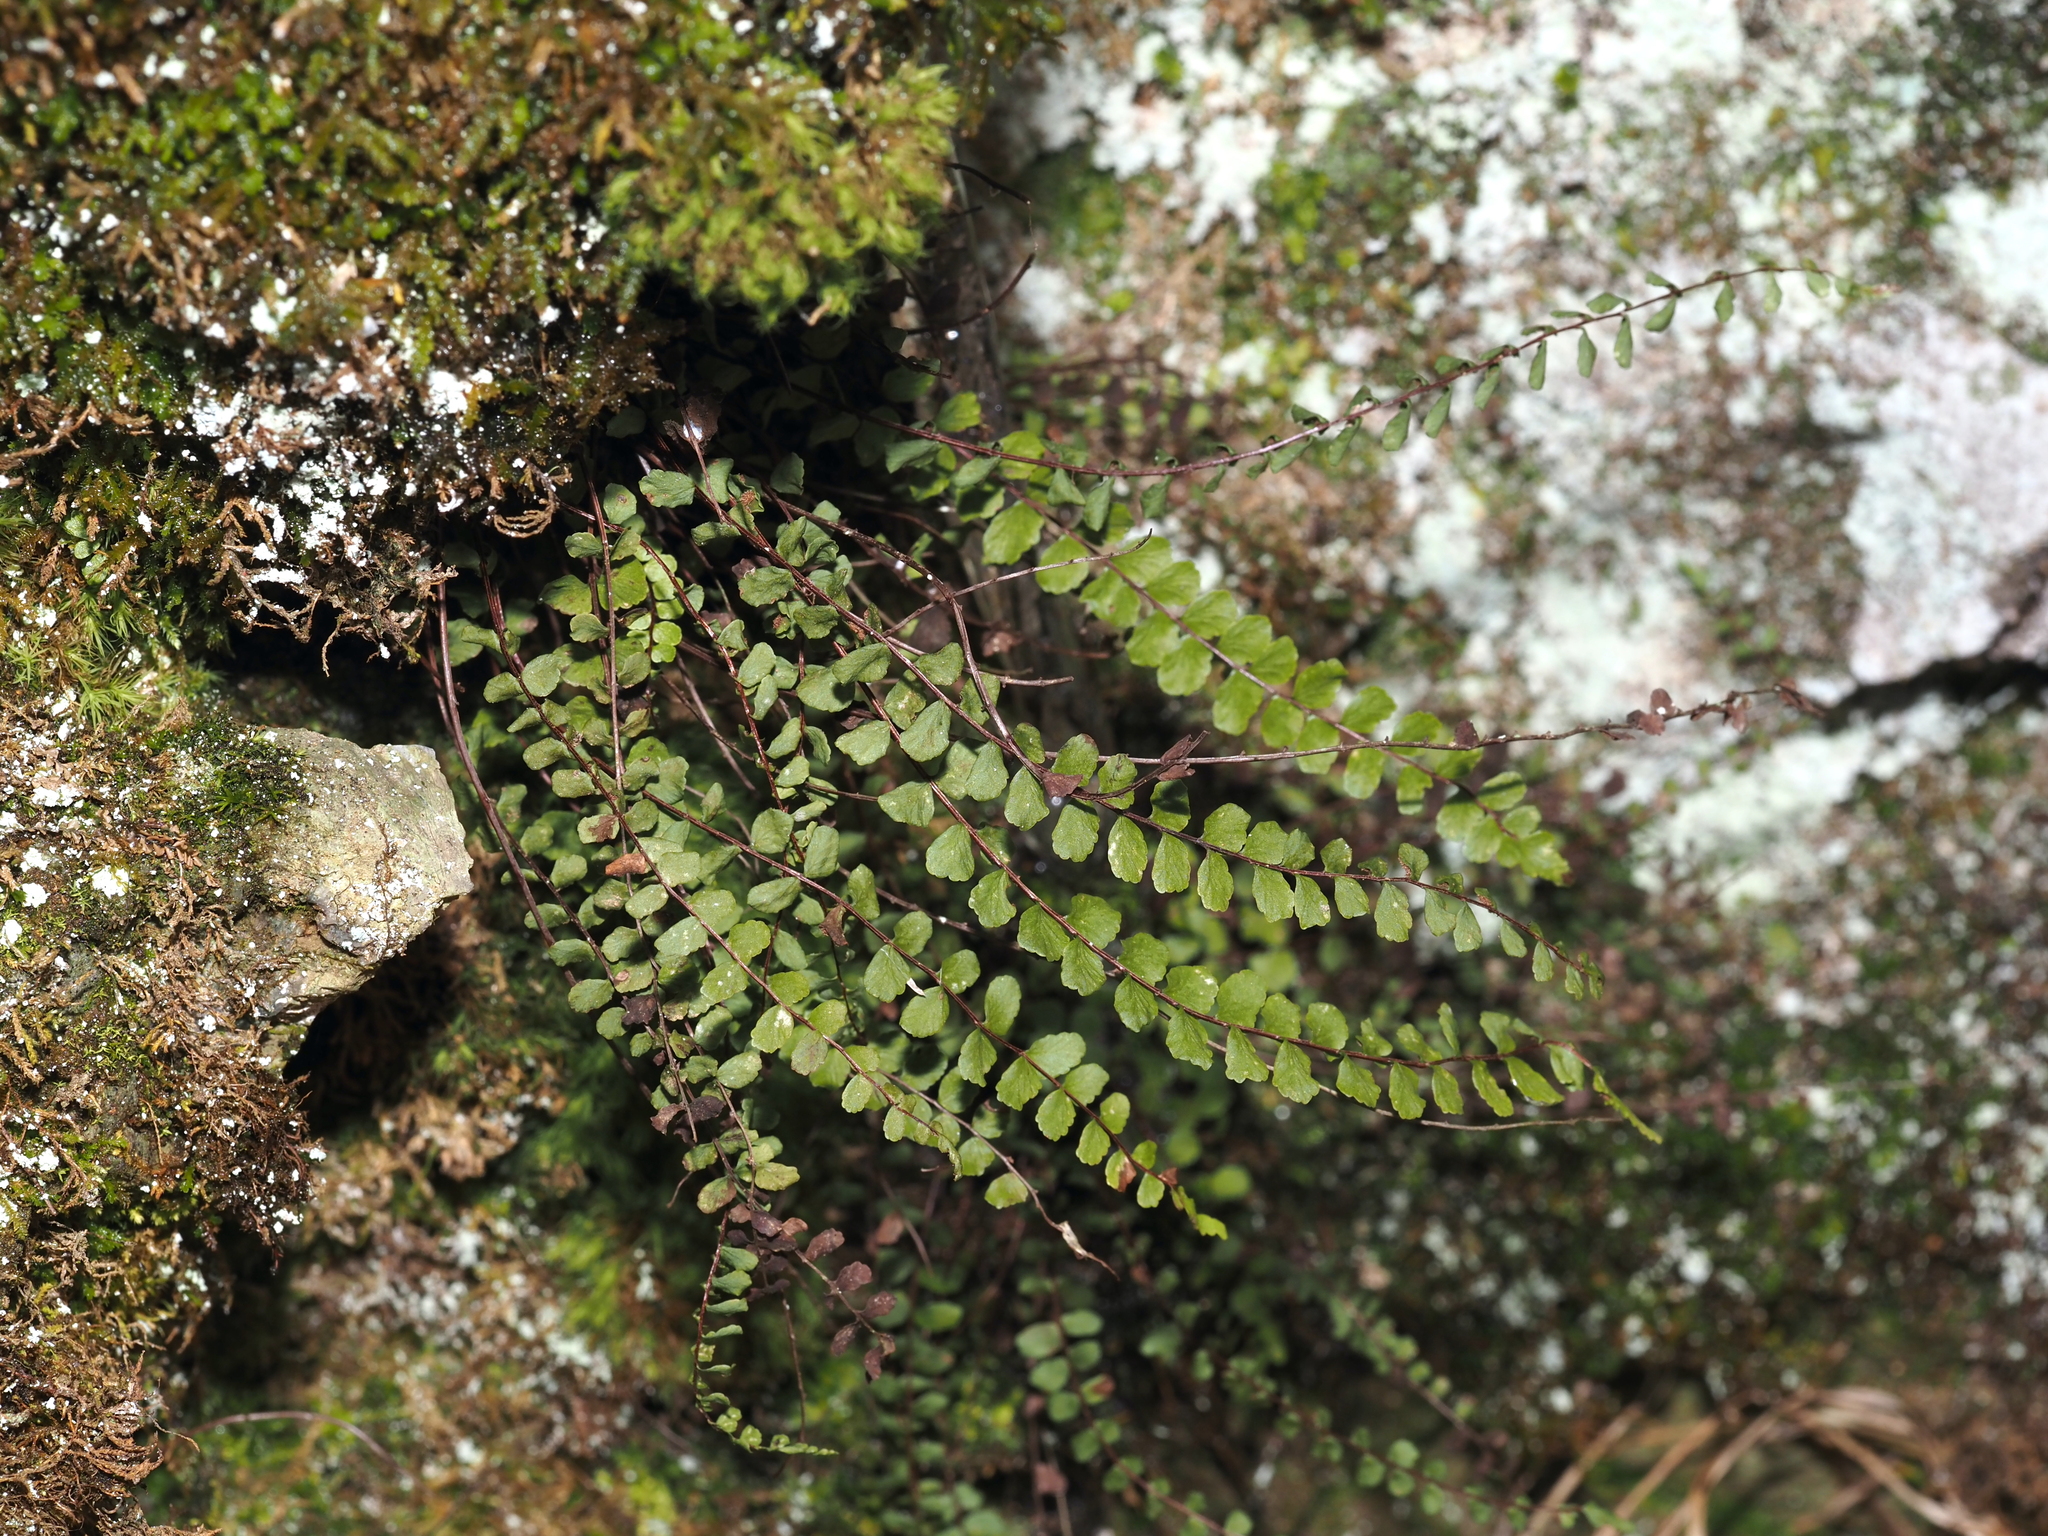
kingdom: Plantae
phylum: Tracheophyta
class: Polypodiopsida
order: Polypodiales
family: Aspleniaceae
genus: Asplenium
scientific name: Asplenium trichomanes
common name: Maidenhair spleenwort
